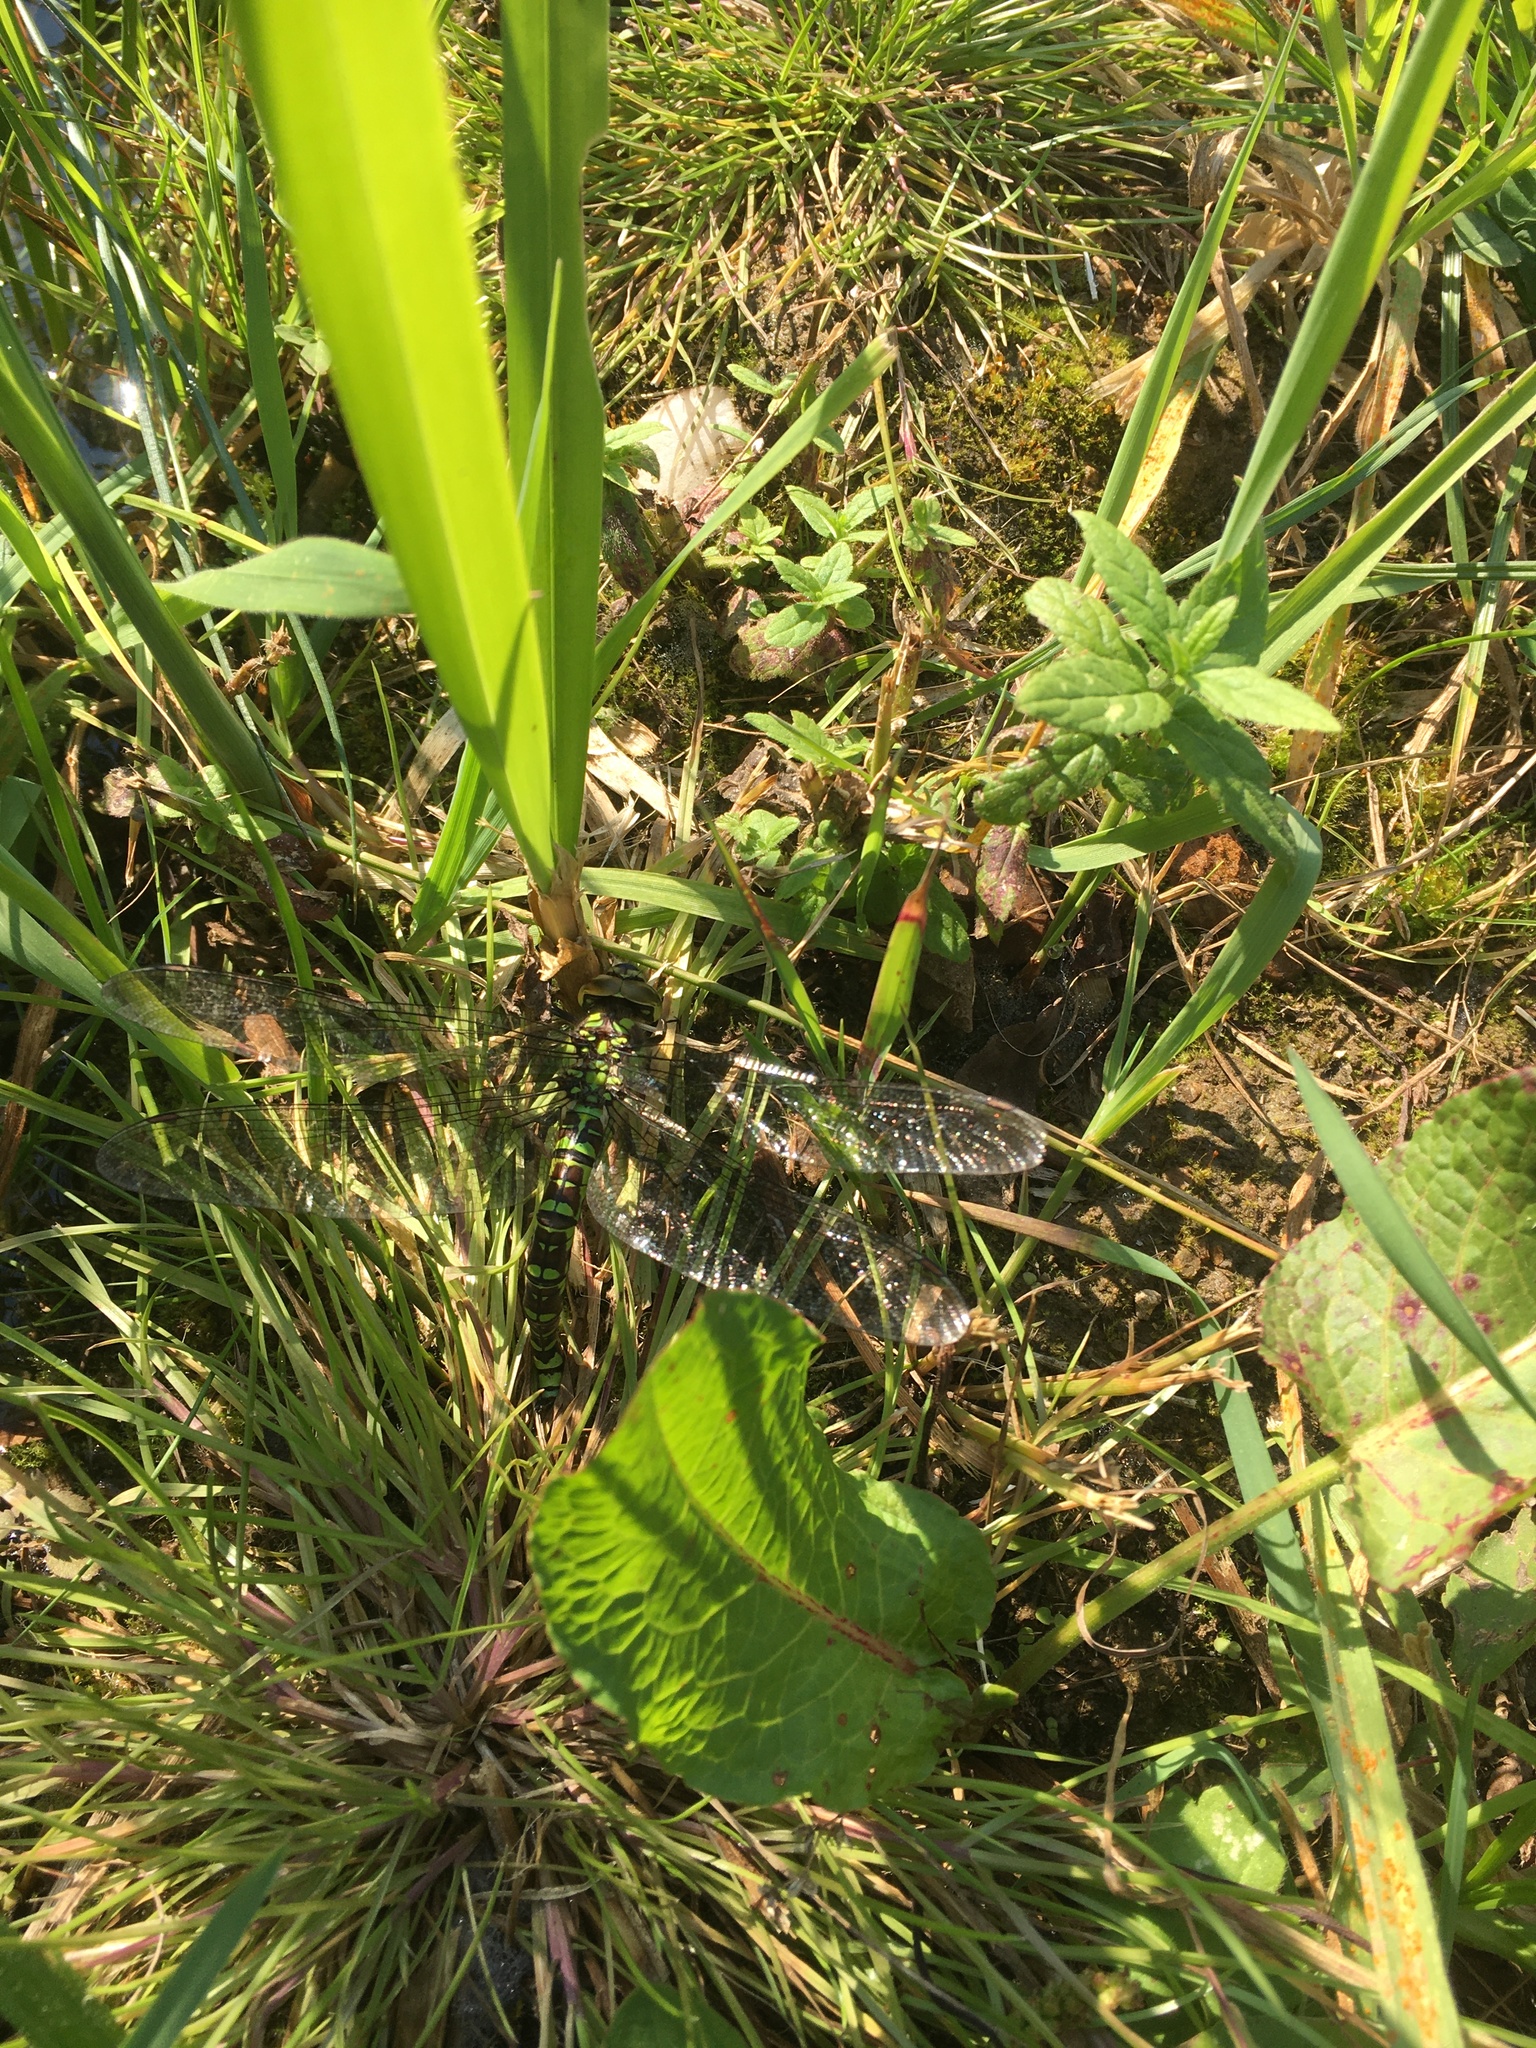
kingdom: Animalia
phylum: Arthropoda
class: Insecta
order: Odonata
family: Aeshnidae
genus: Aeshna
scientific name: Aeshna cyanea
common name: Southern hawker
